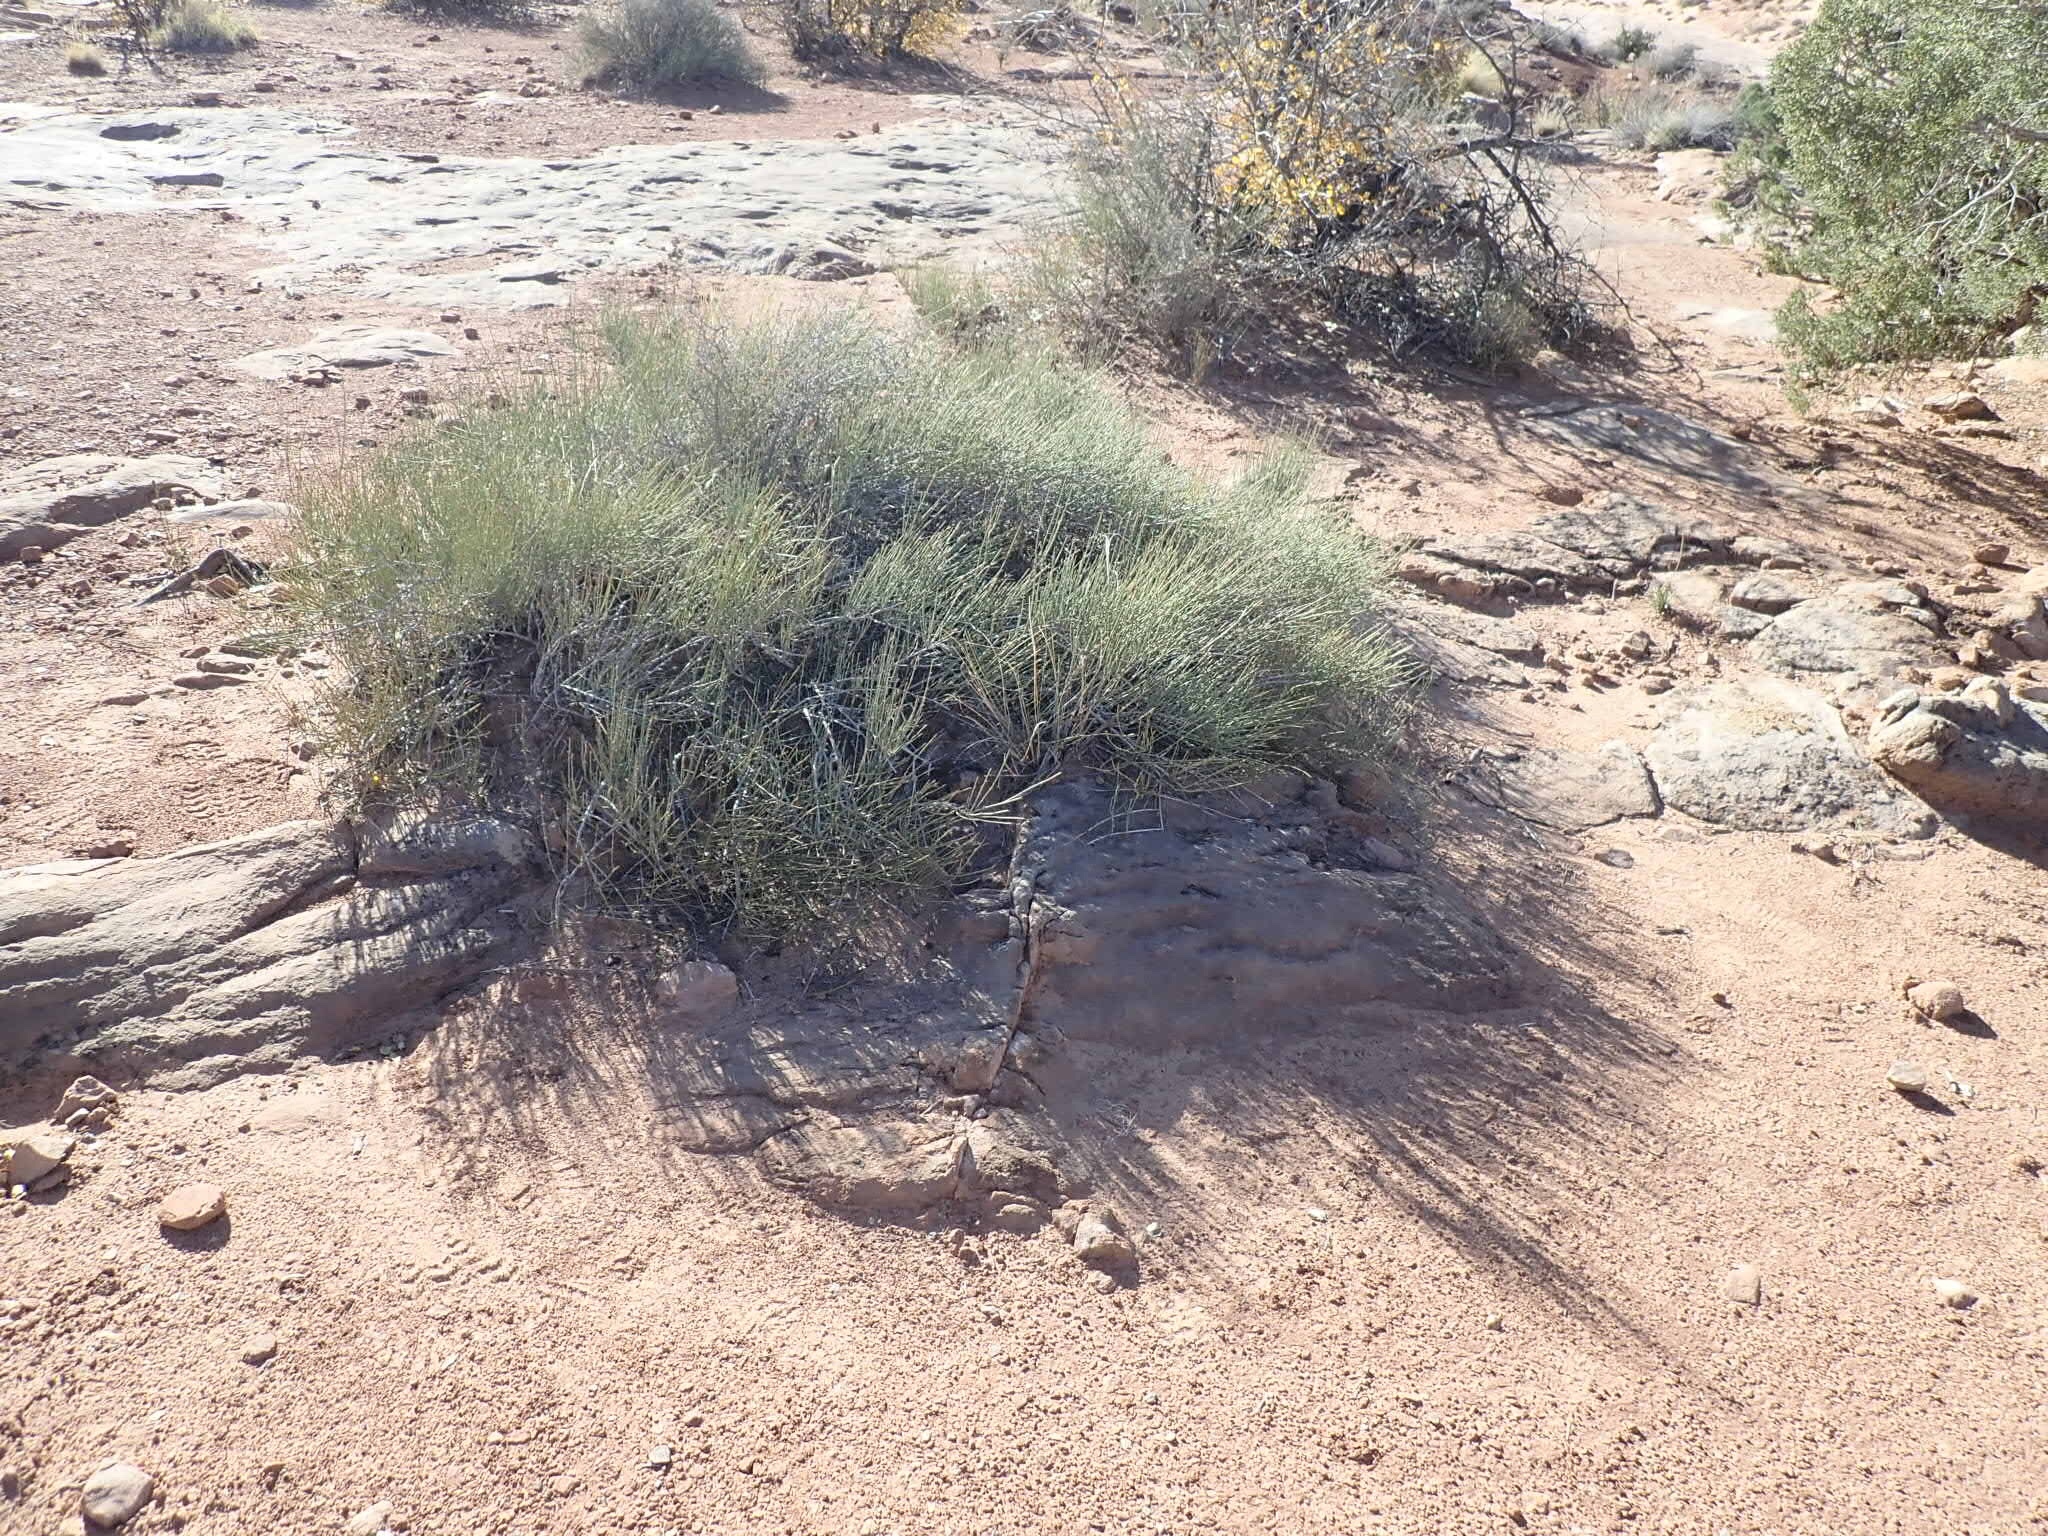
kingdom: Plantae
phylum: Tracheophyta
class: Gnetopsida
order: Ephedrales
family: Ephedraceae
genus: Ephedra
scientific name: Ephedra viridis
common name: Green ephedra
